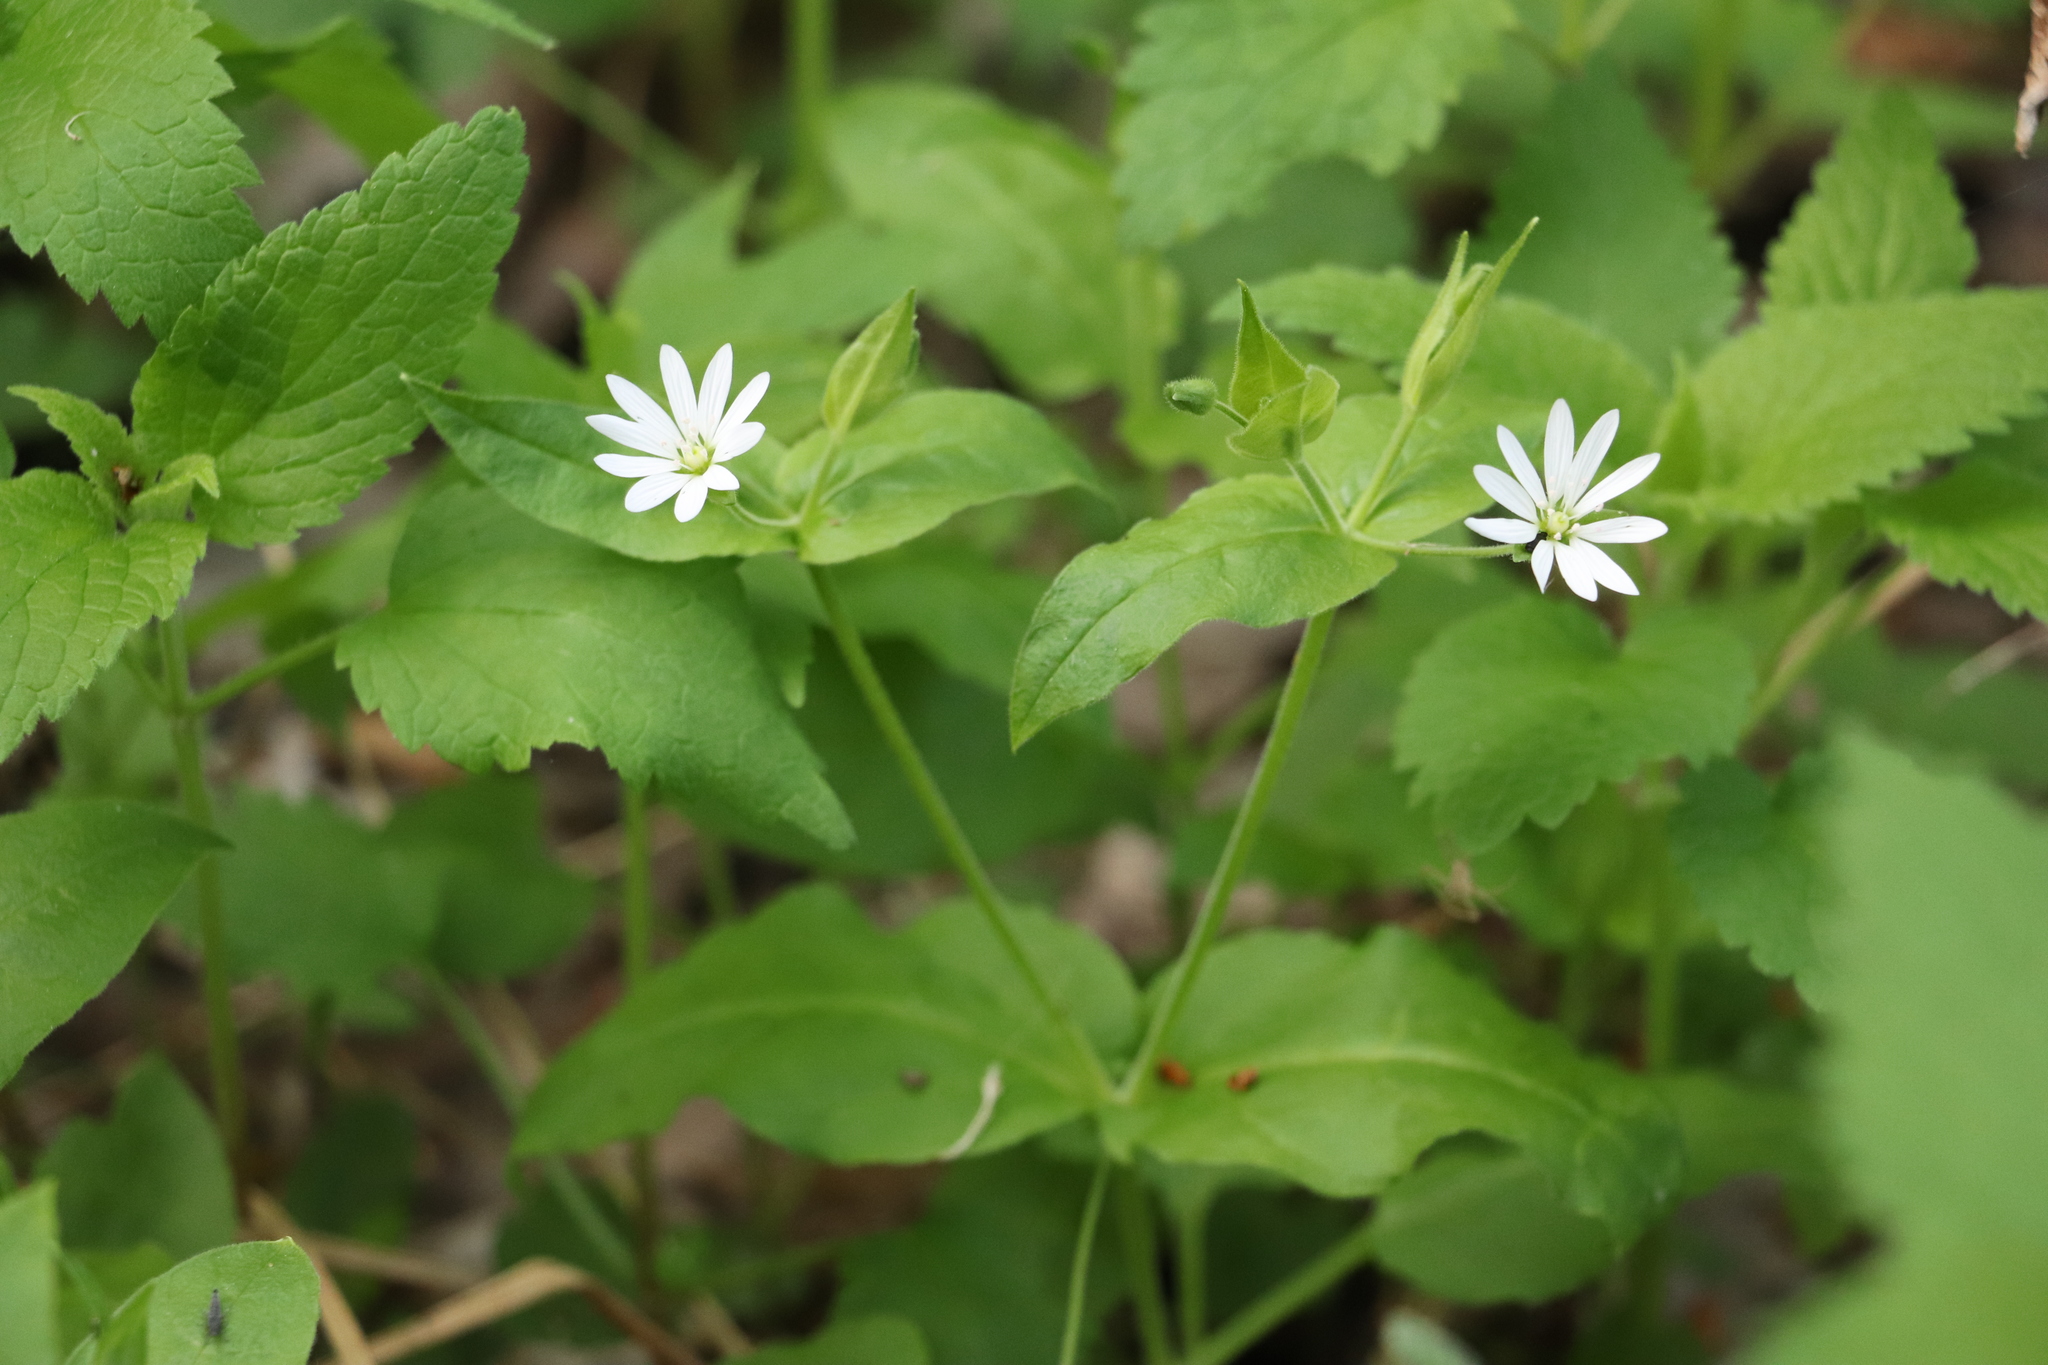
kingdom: Plantae
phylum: Tracheophyta
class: Magnoliopsida
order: Caryophyllales
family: Caryophyllaceae
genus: Stellaria
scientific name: Stellaria bungeana
